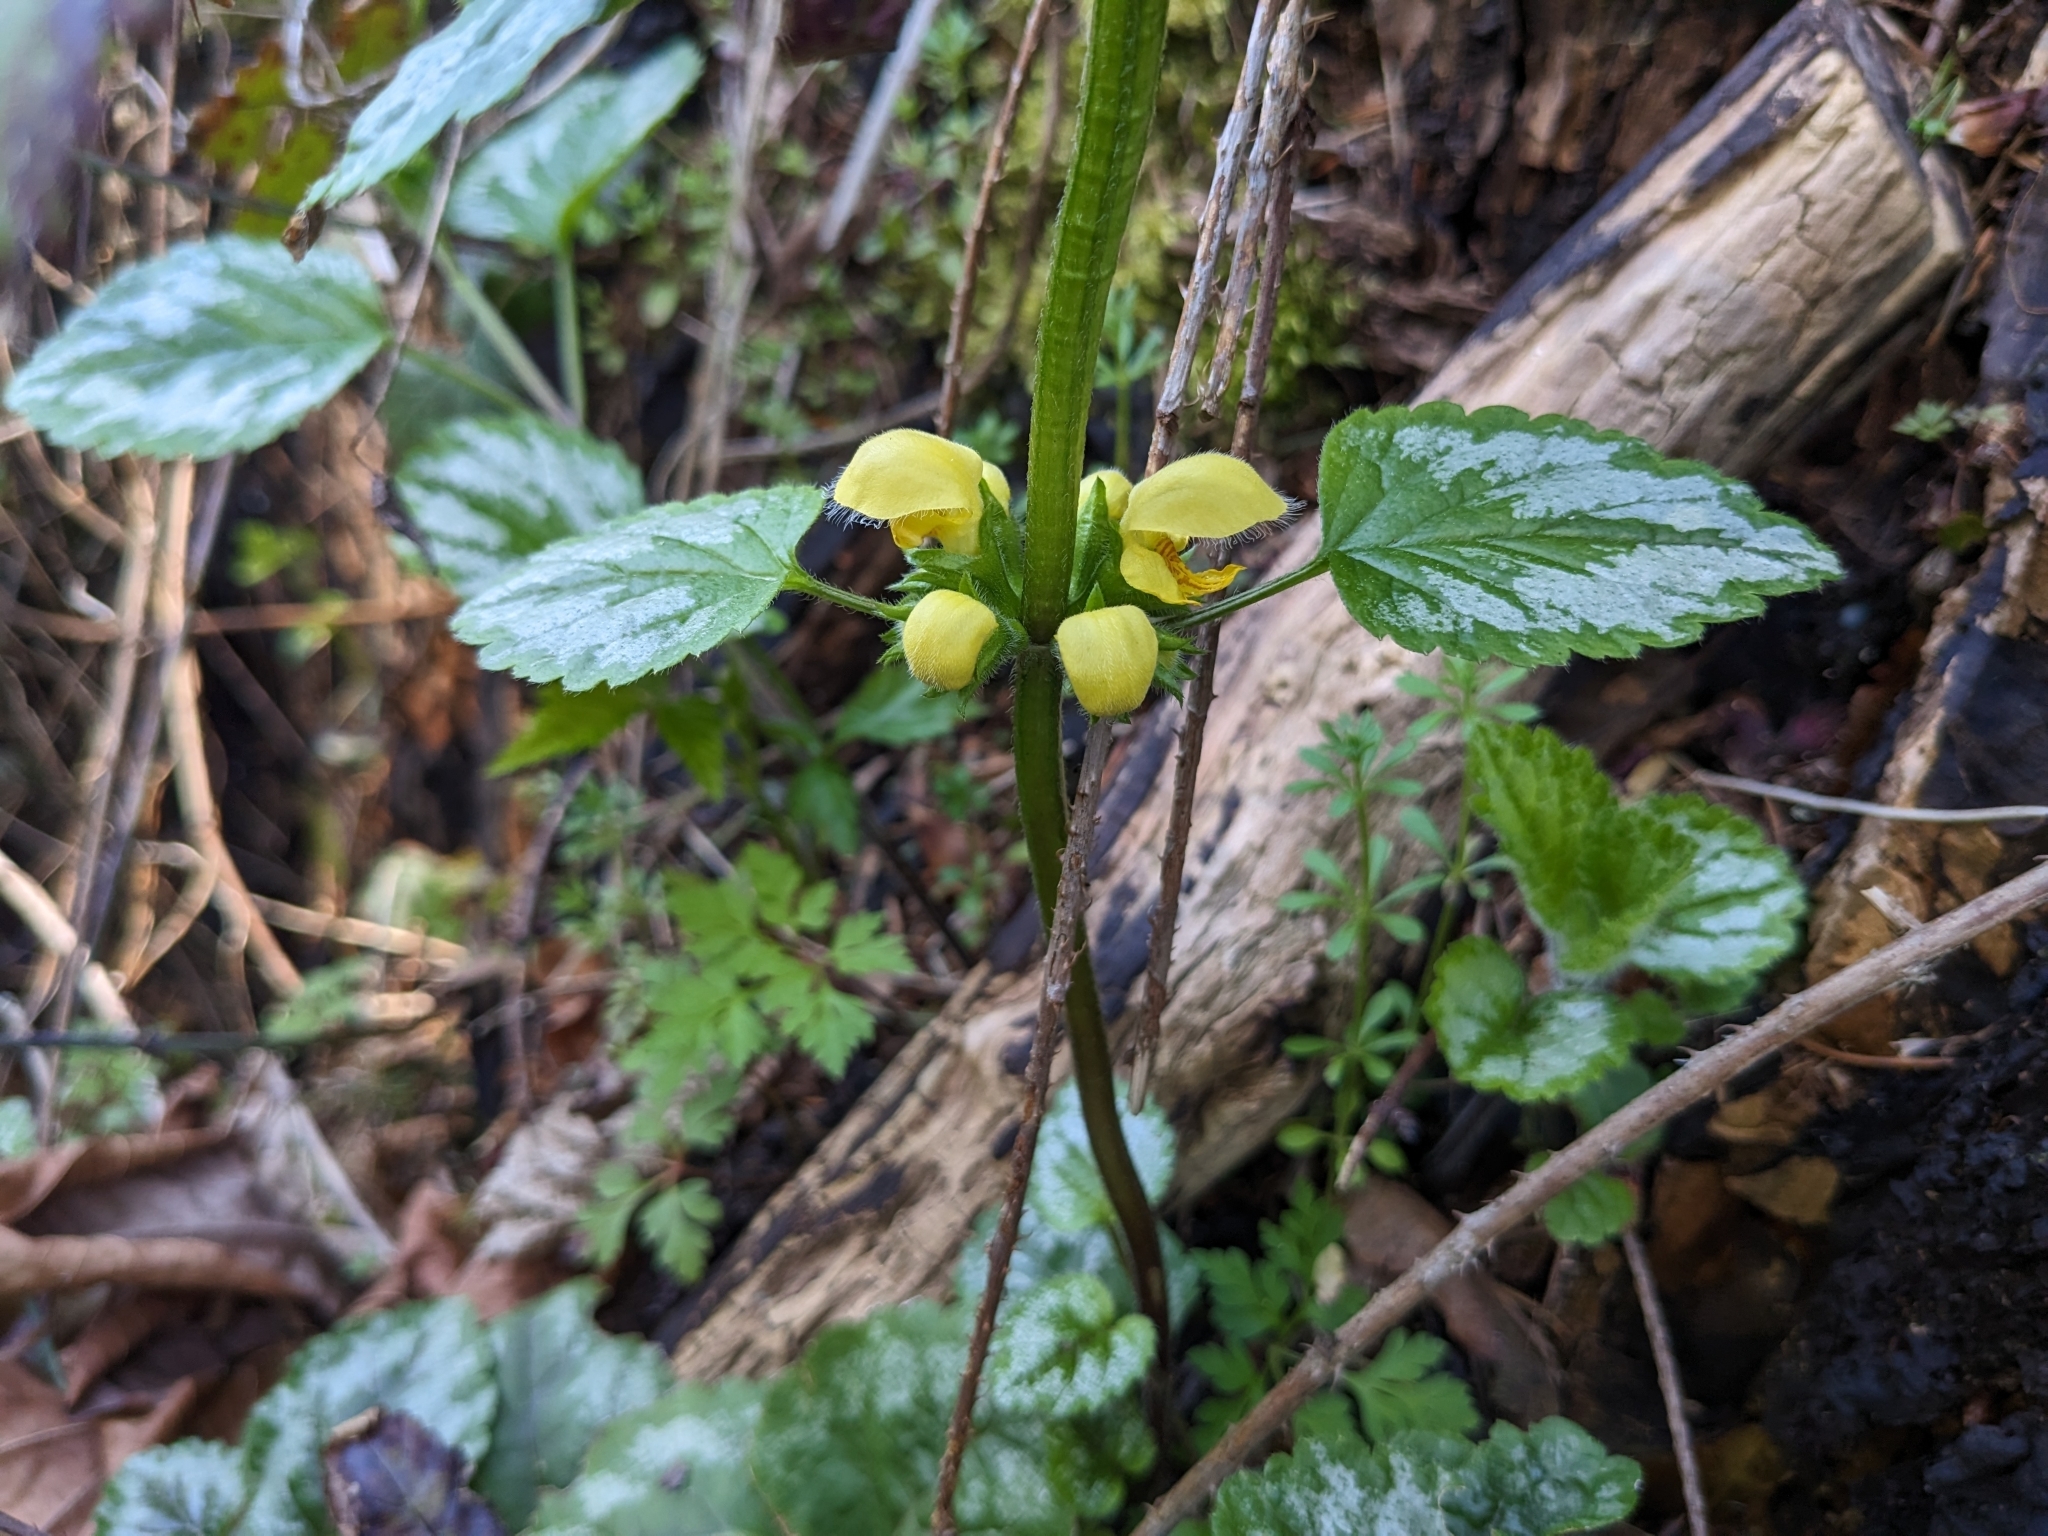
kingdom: Plantae
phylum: Tracheophyta
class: Magnoliopsida
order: Lamiales
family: Lamiaceae
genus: Lamium
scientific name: Lamium galeobdolon
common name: Yellow archangel
